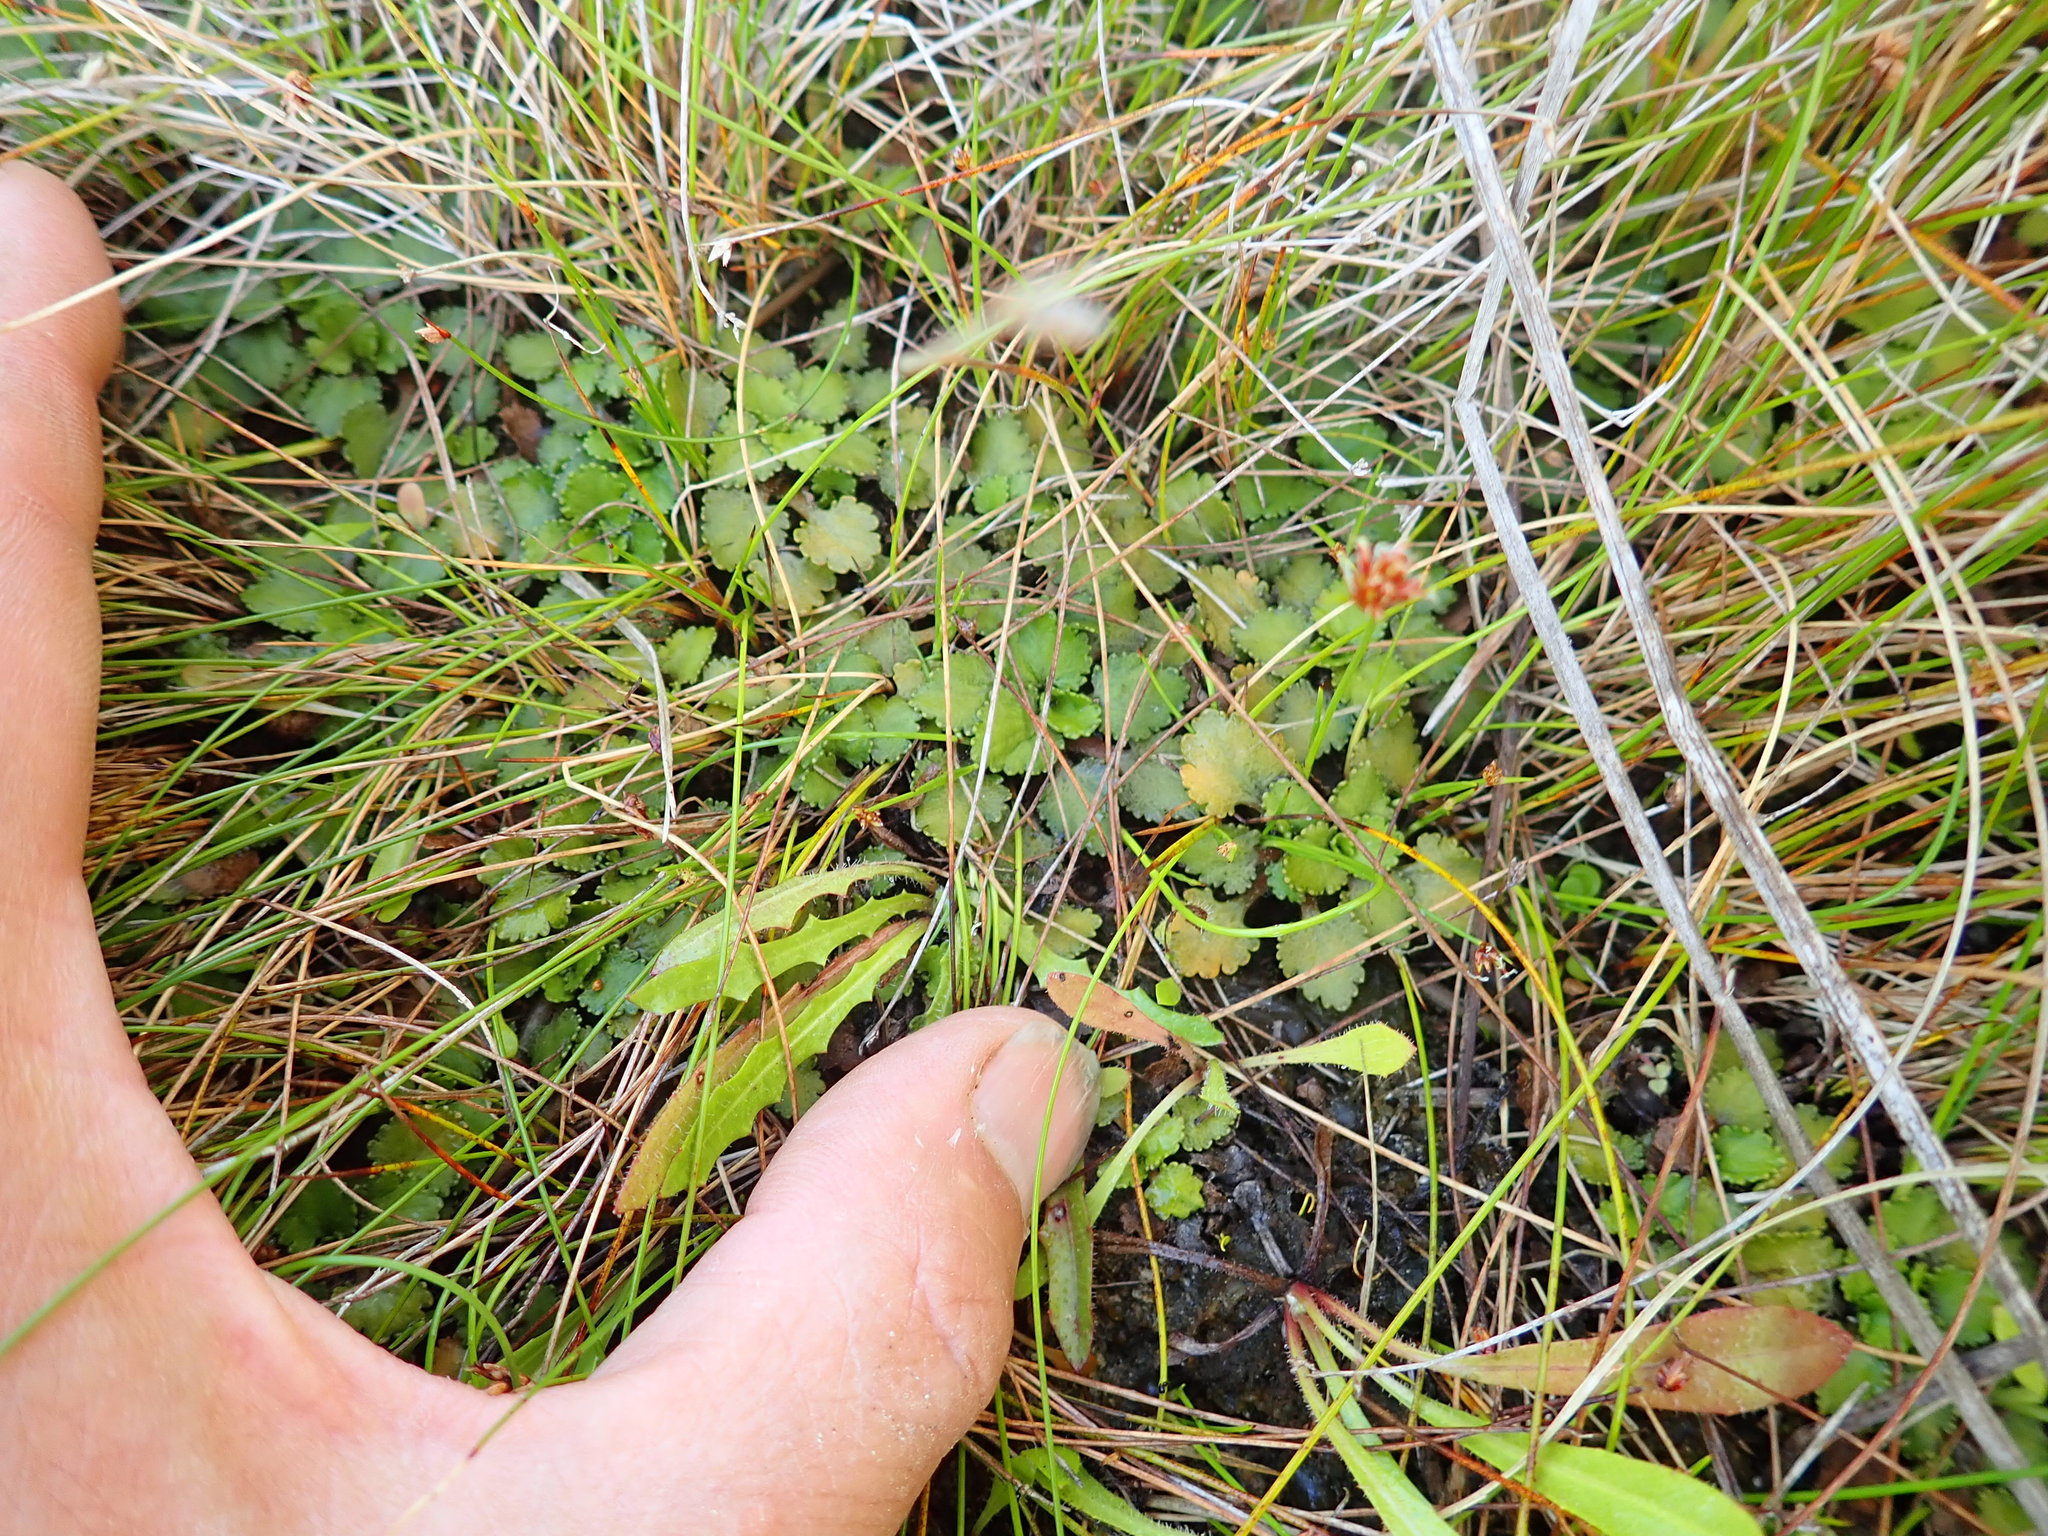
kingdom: Plantae
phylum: Tracheophyta
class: Magnoliopsida
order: Gunnerales
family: Gunneraceae
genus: Gunnera
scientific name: Gunnera dentata
